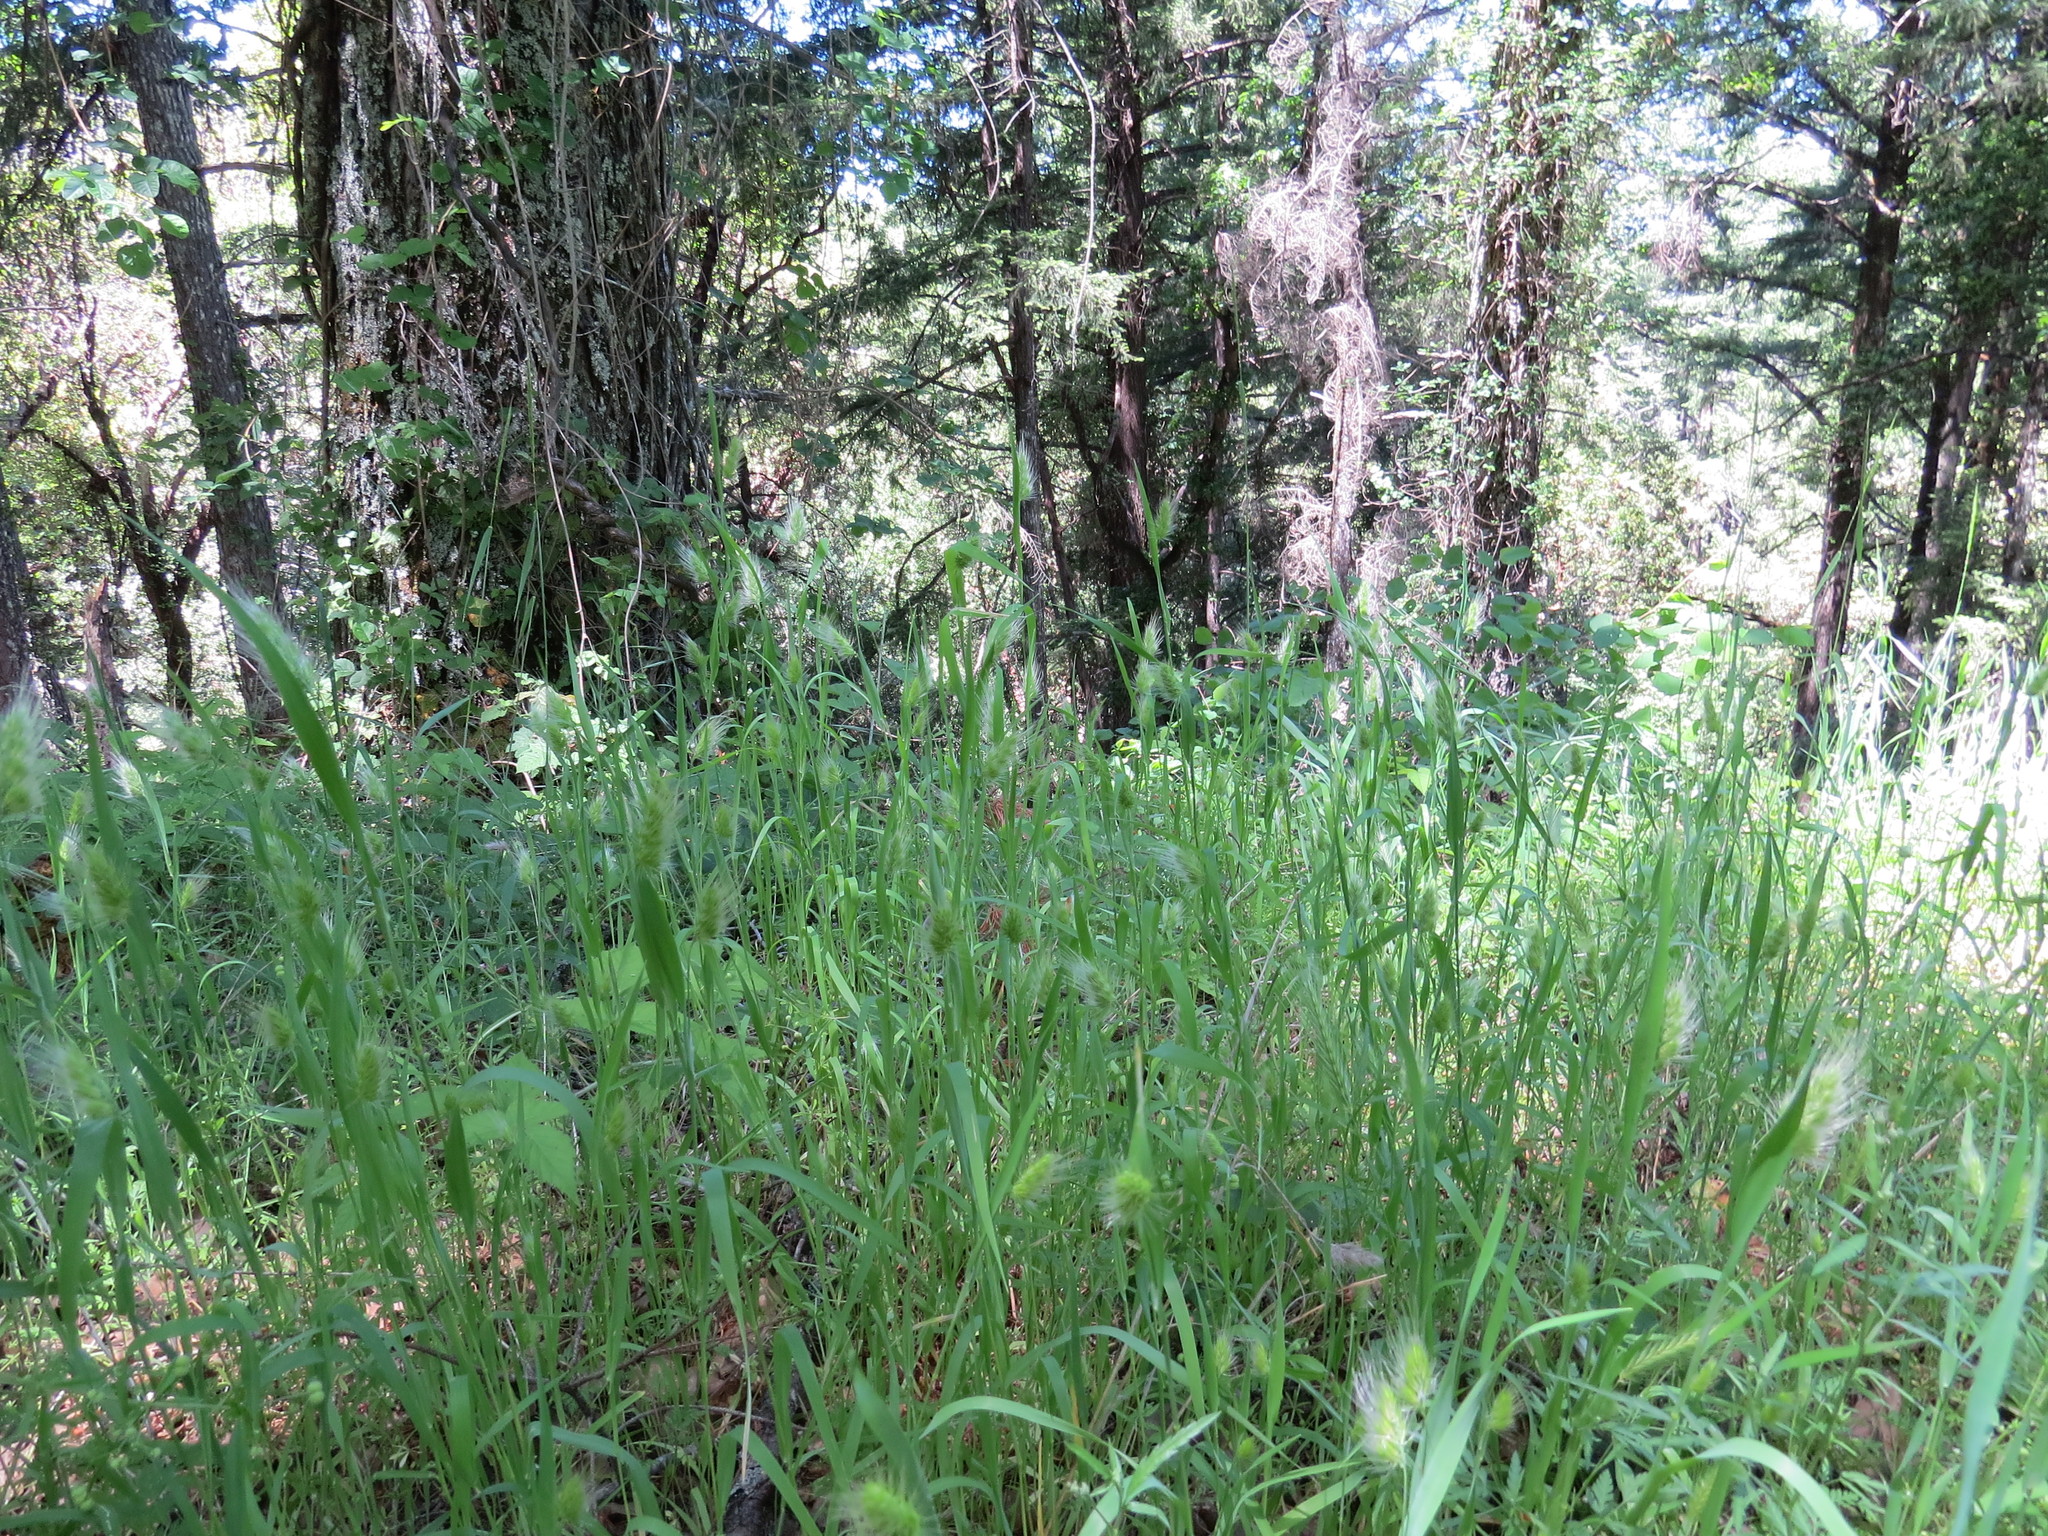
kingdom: Plantae
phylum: Tracheophyta
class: Liliopsida
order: Poales
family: Poaceae
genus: Cynosurus
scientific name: Cynosurus echinatus
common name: Rough dog's-tail
